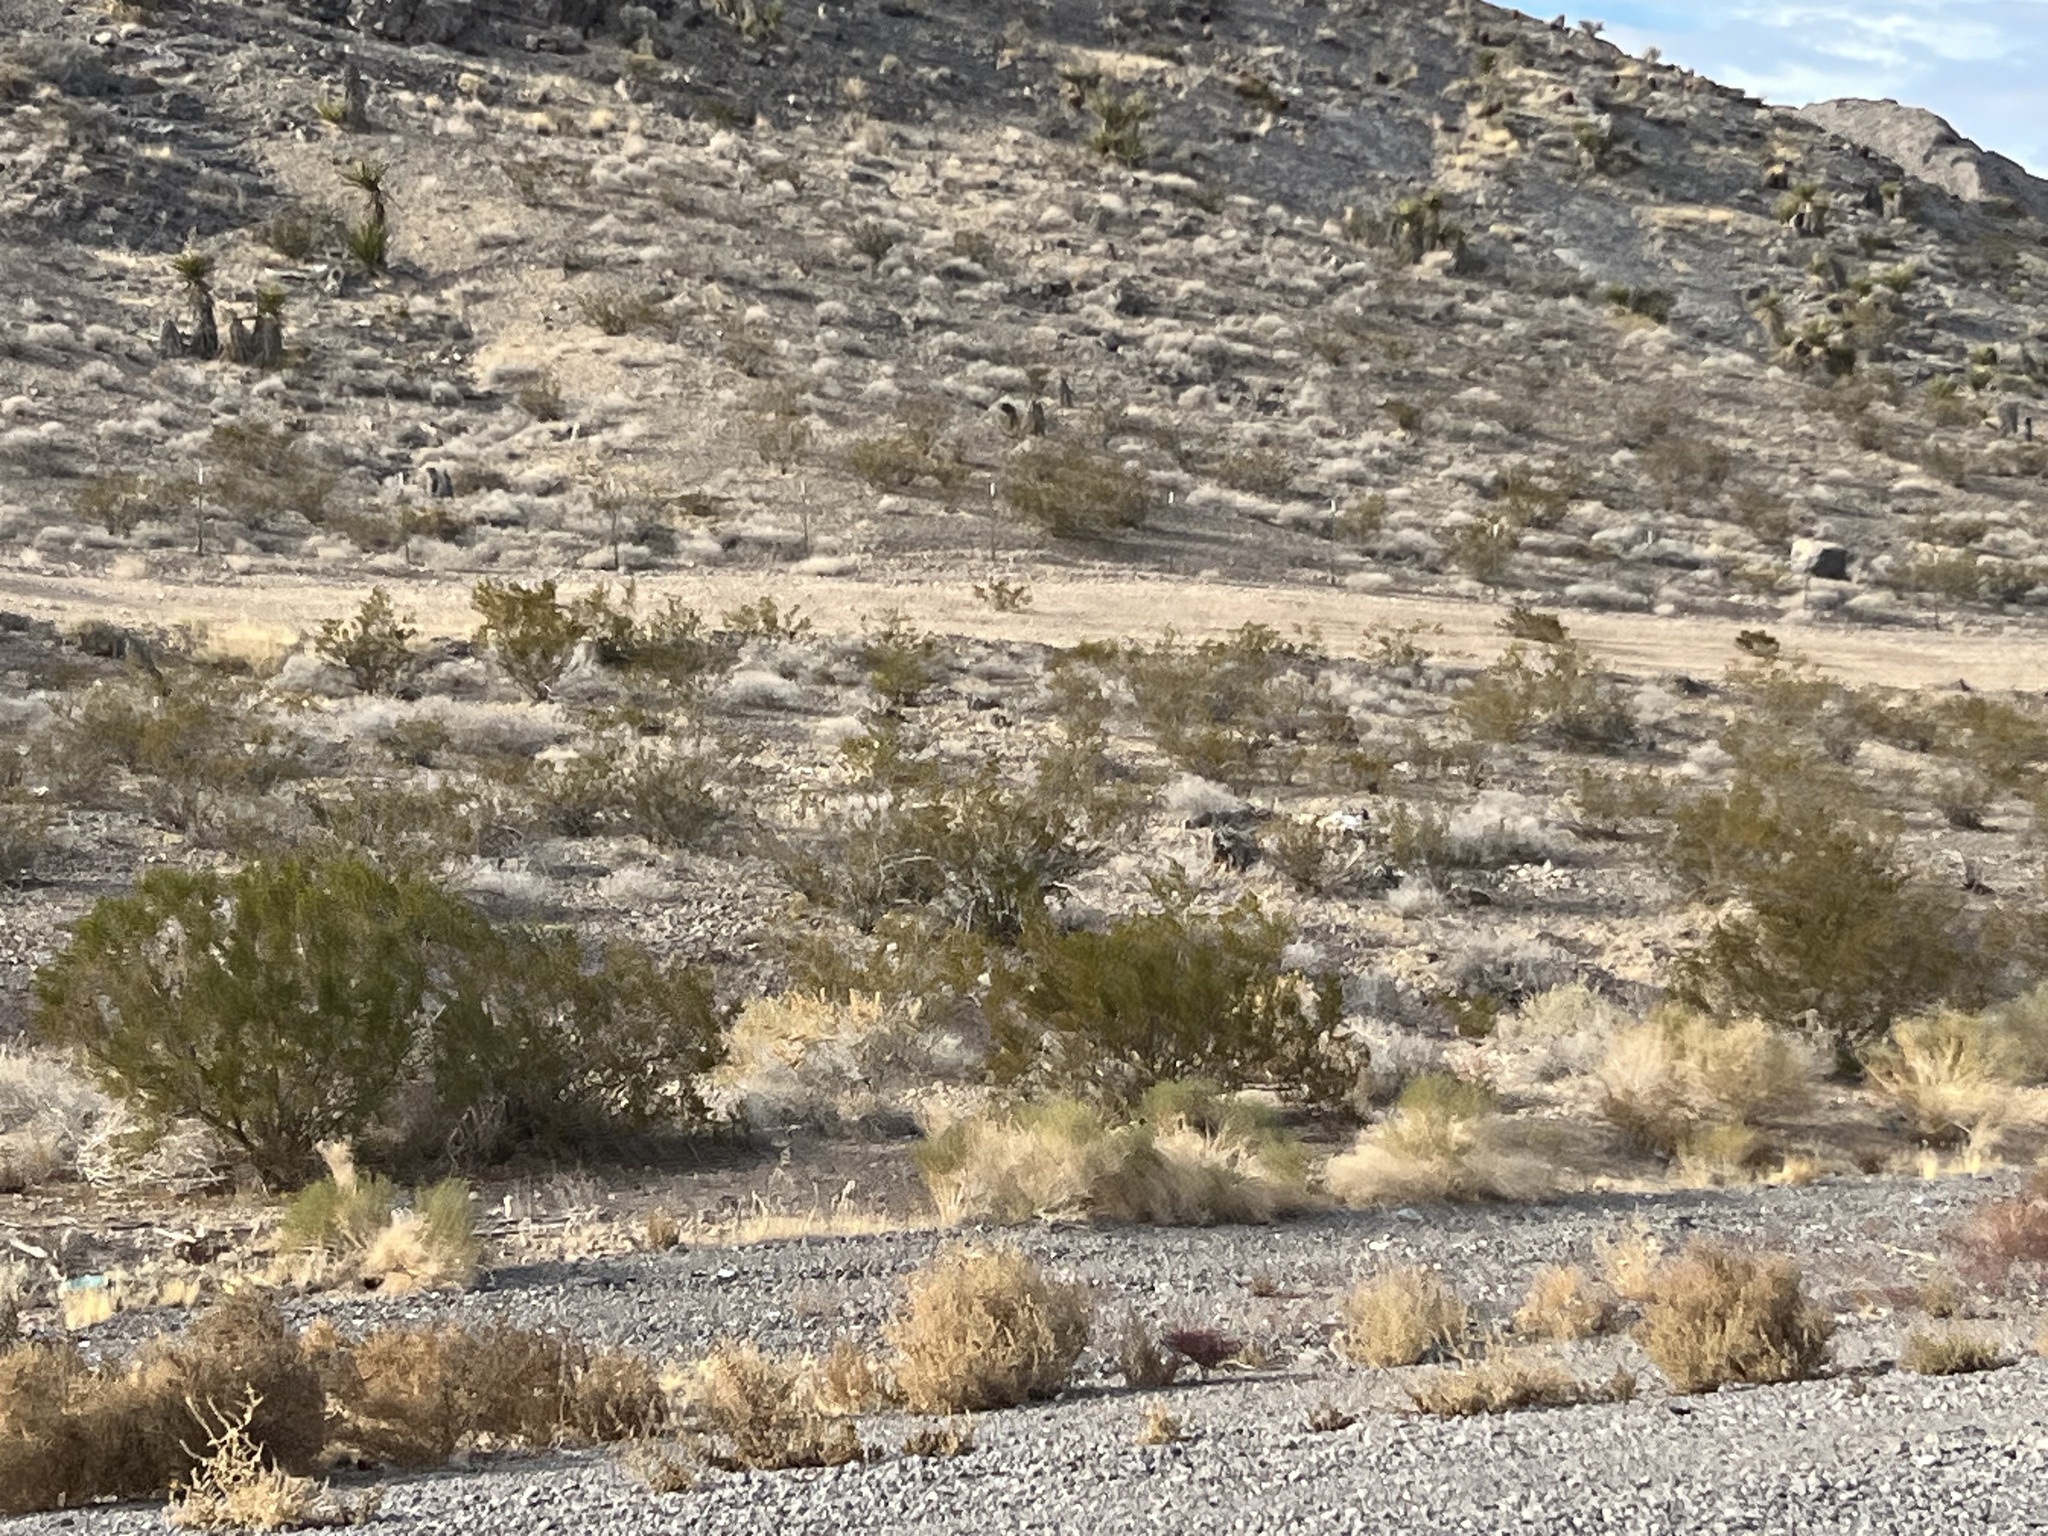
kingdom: Plantae
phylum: Tracheophyta
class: Magnoliopsida
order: Zygophyllales
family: Zygophyllaceae
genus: Larrea
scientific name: Larrea tridentata
